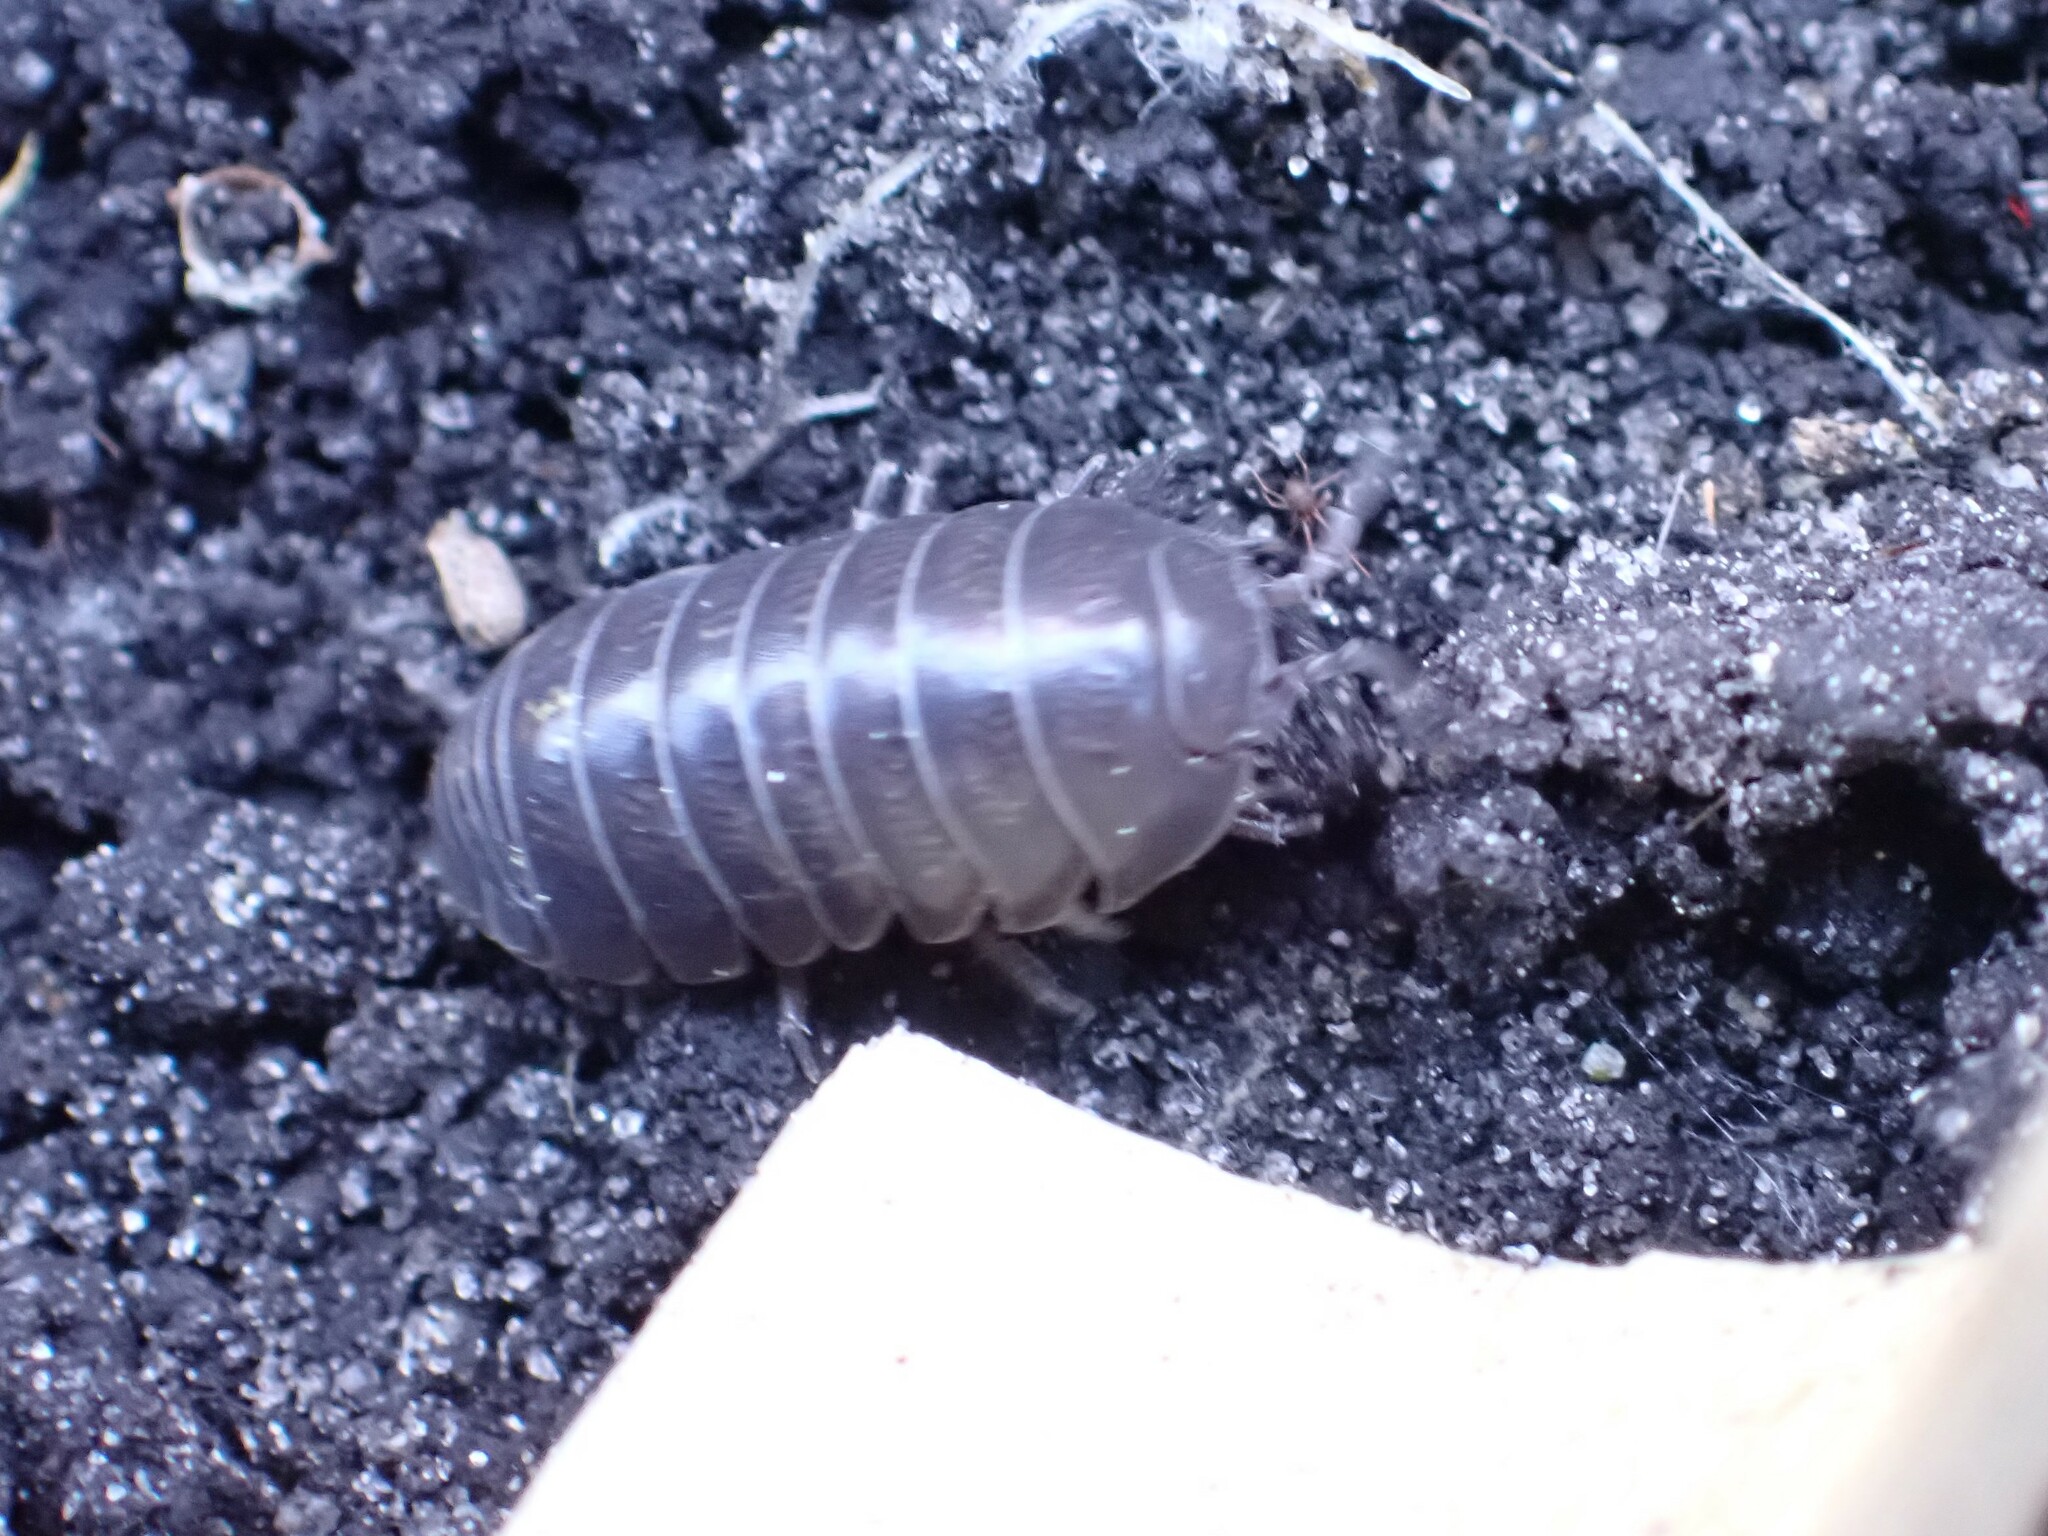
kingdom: Animalia
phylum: Arthropoda
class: Malacostraca
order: Isopoda
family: Armadillidiidae
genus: Armadillidium
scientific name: Armadillidium vulgare
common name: Common pill woodlouse
